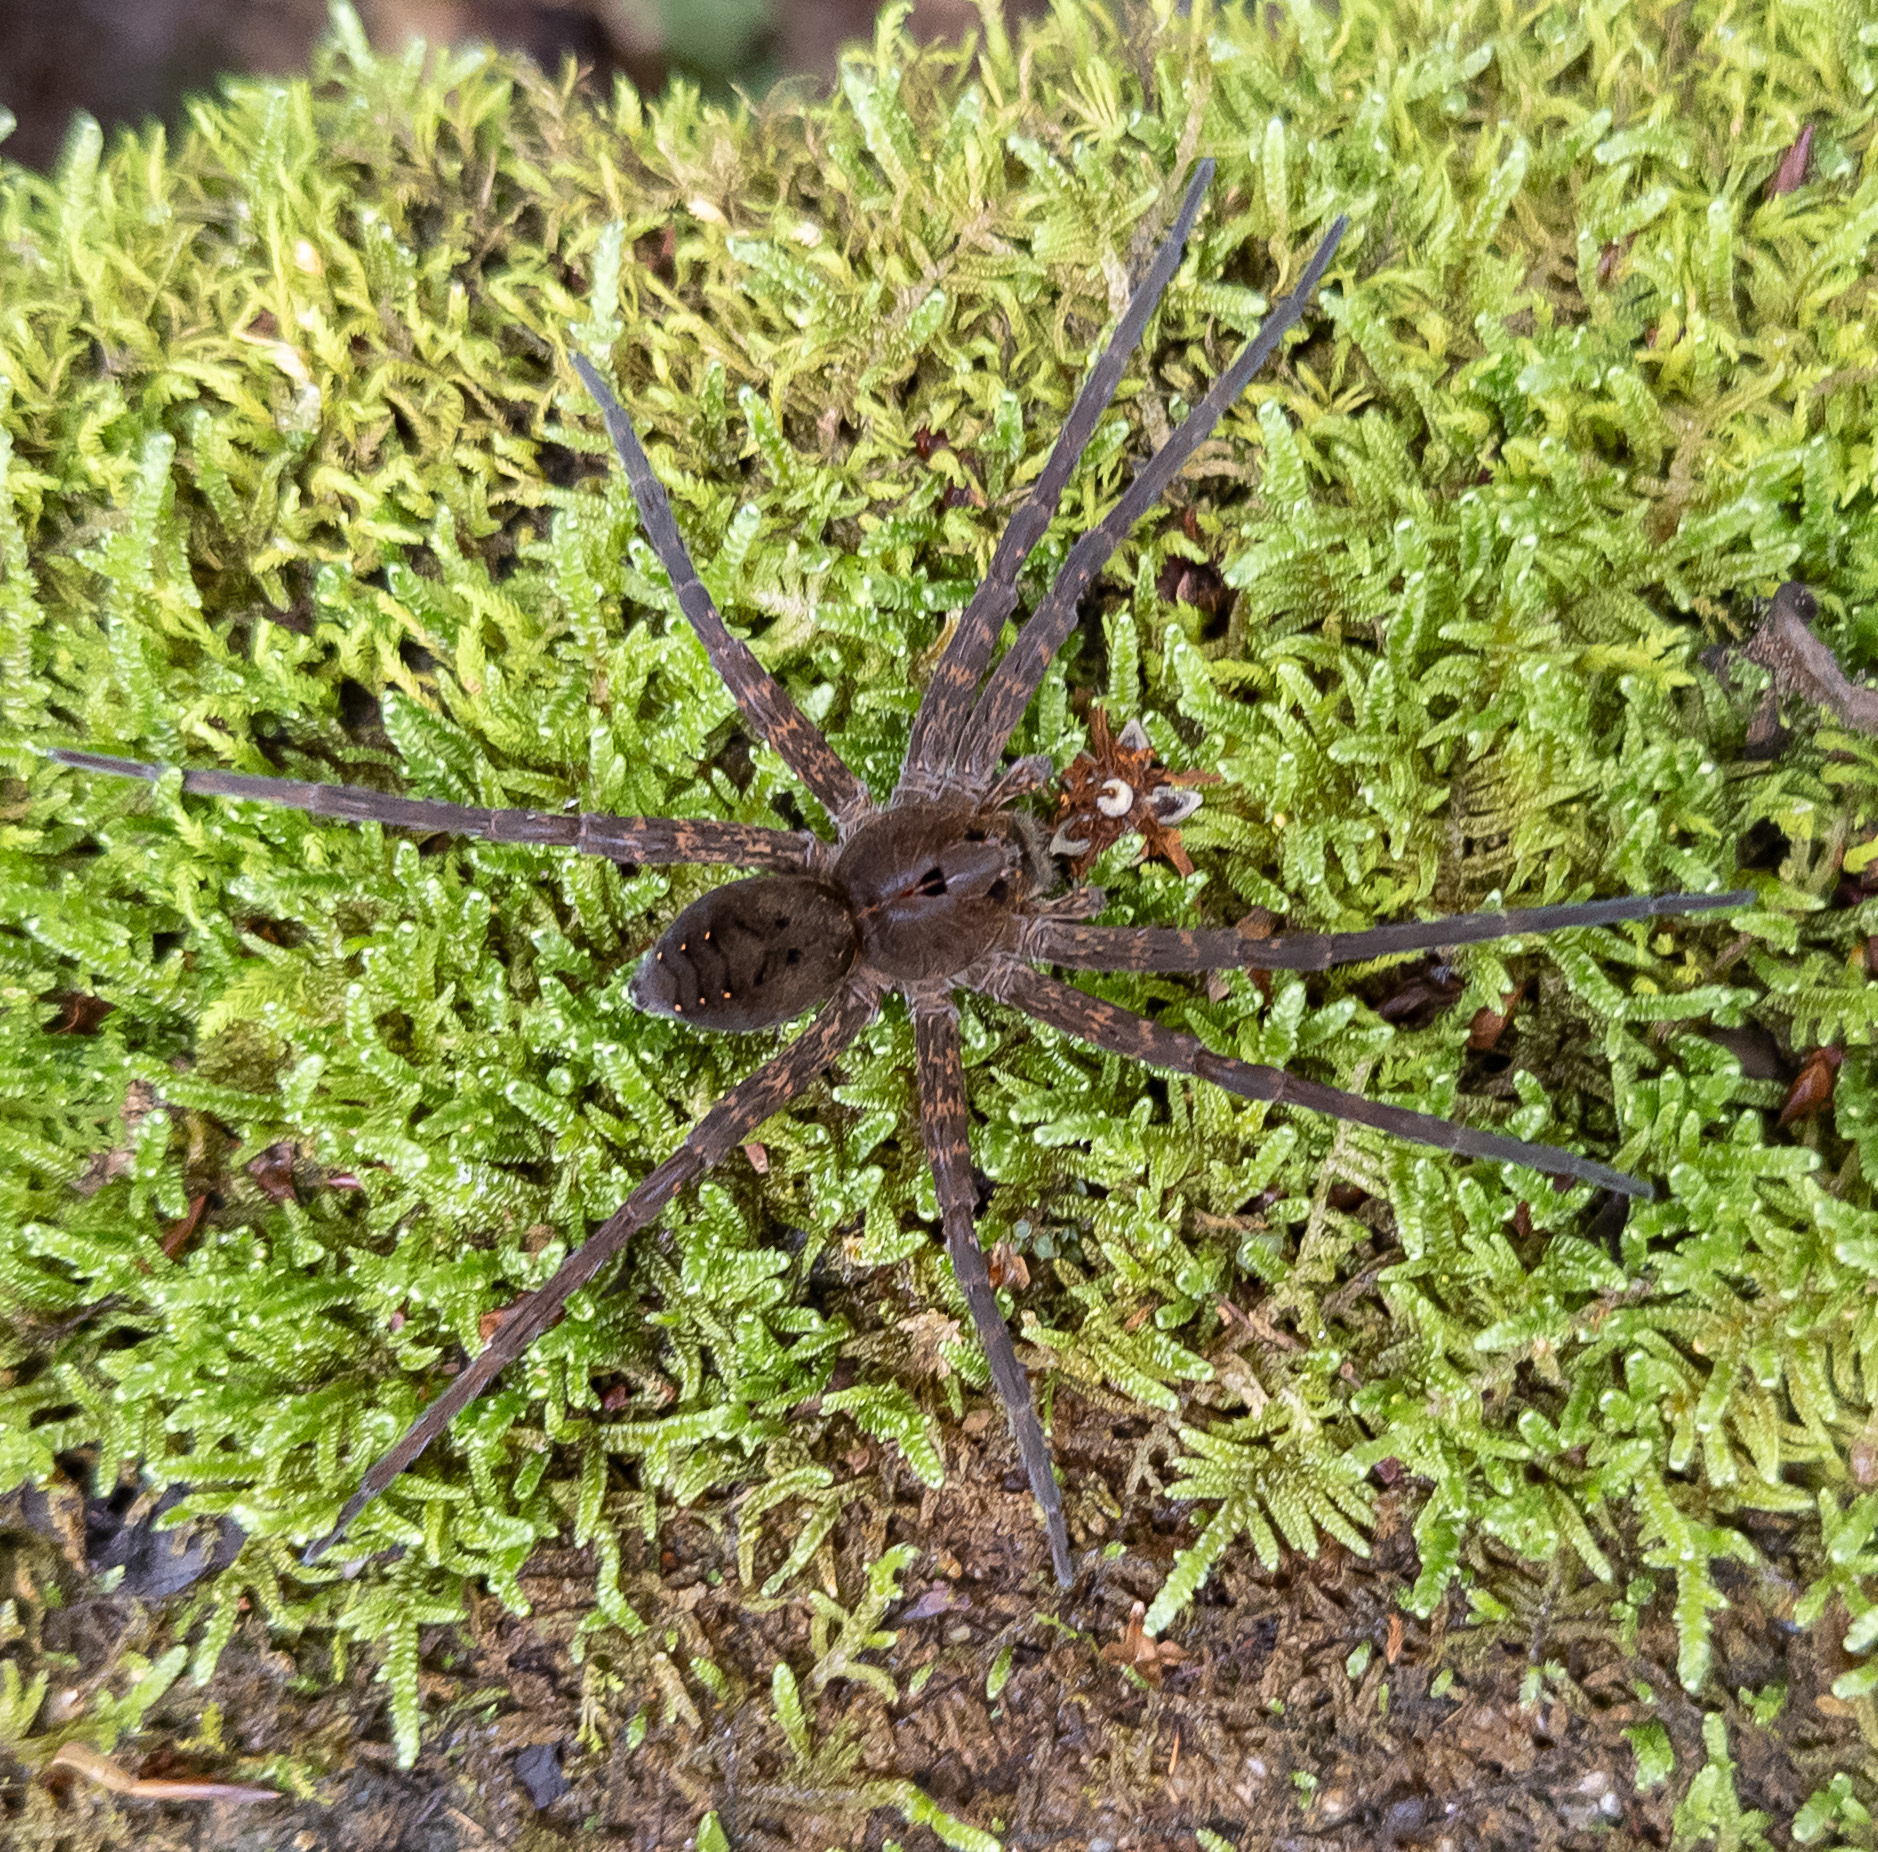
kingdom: Animalia
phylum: Arthropoda
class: Arachnida
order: Araneae
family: Pisauridae
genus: Dolomedes
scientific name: Dolomedes vittatus
